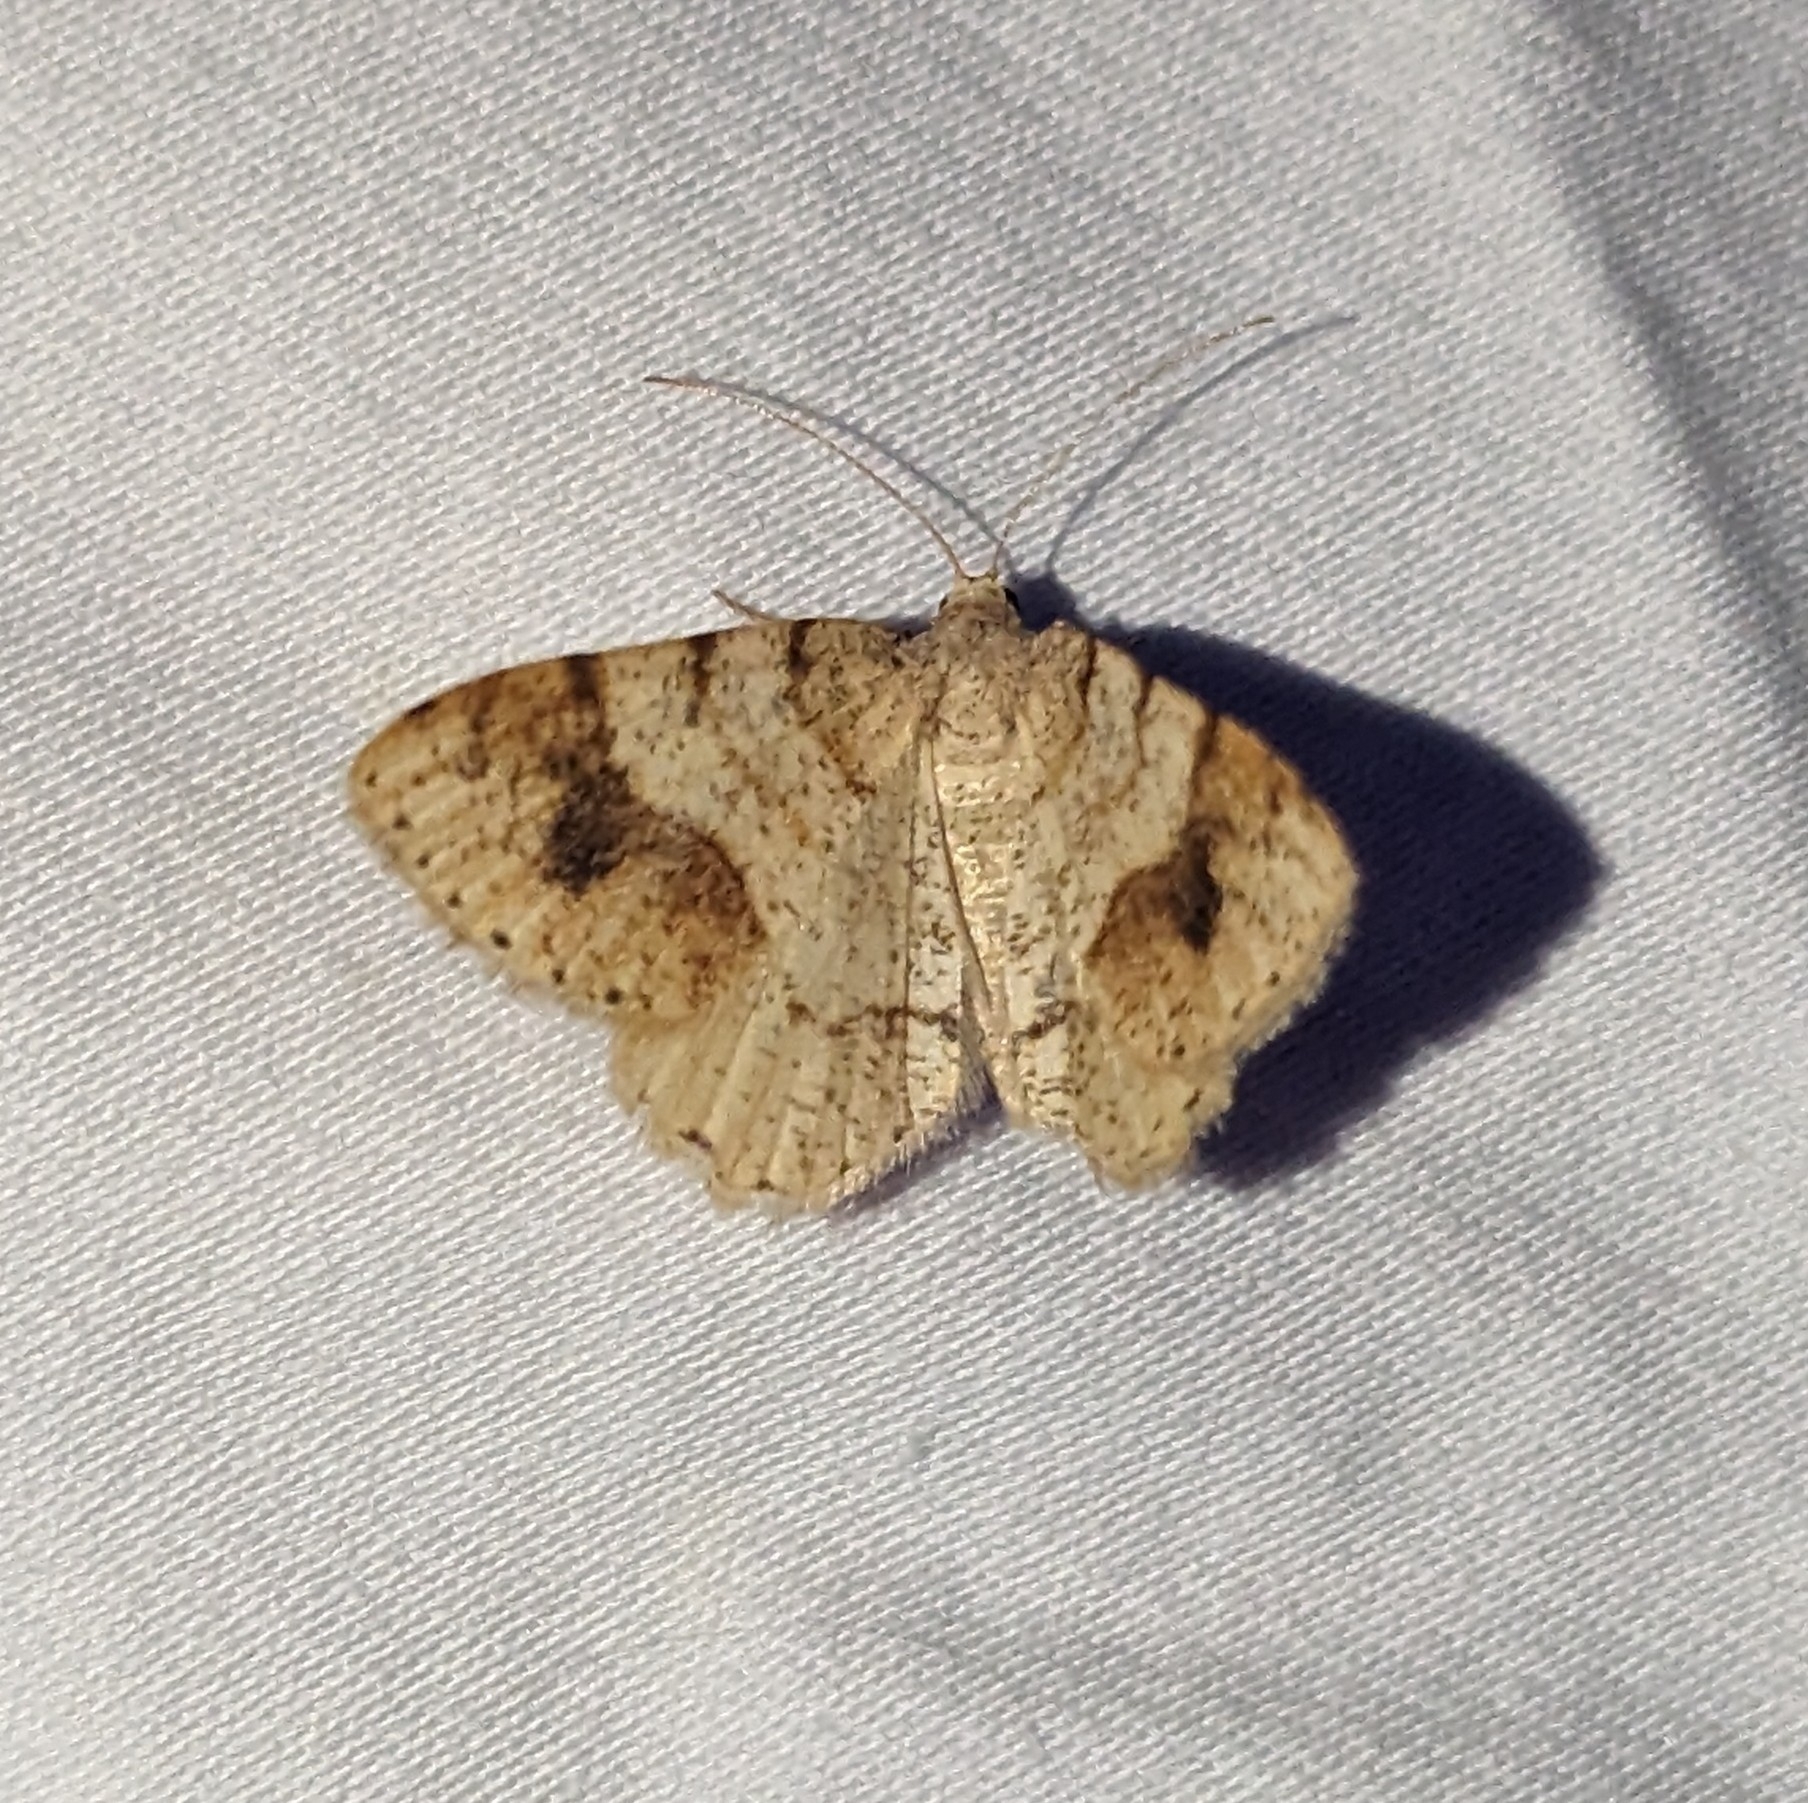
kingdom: Animalia
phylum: Arthropoda
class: Insecta
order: Lepidoptera
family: Geometridae
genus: Macaria
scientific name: Macaria plumosata
